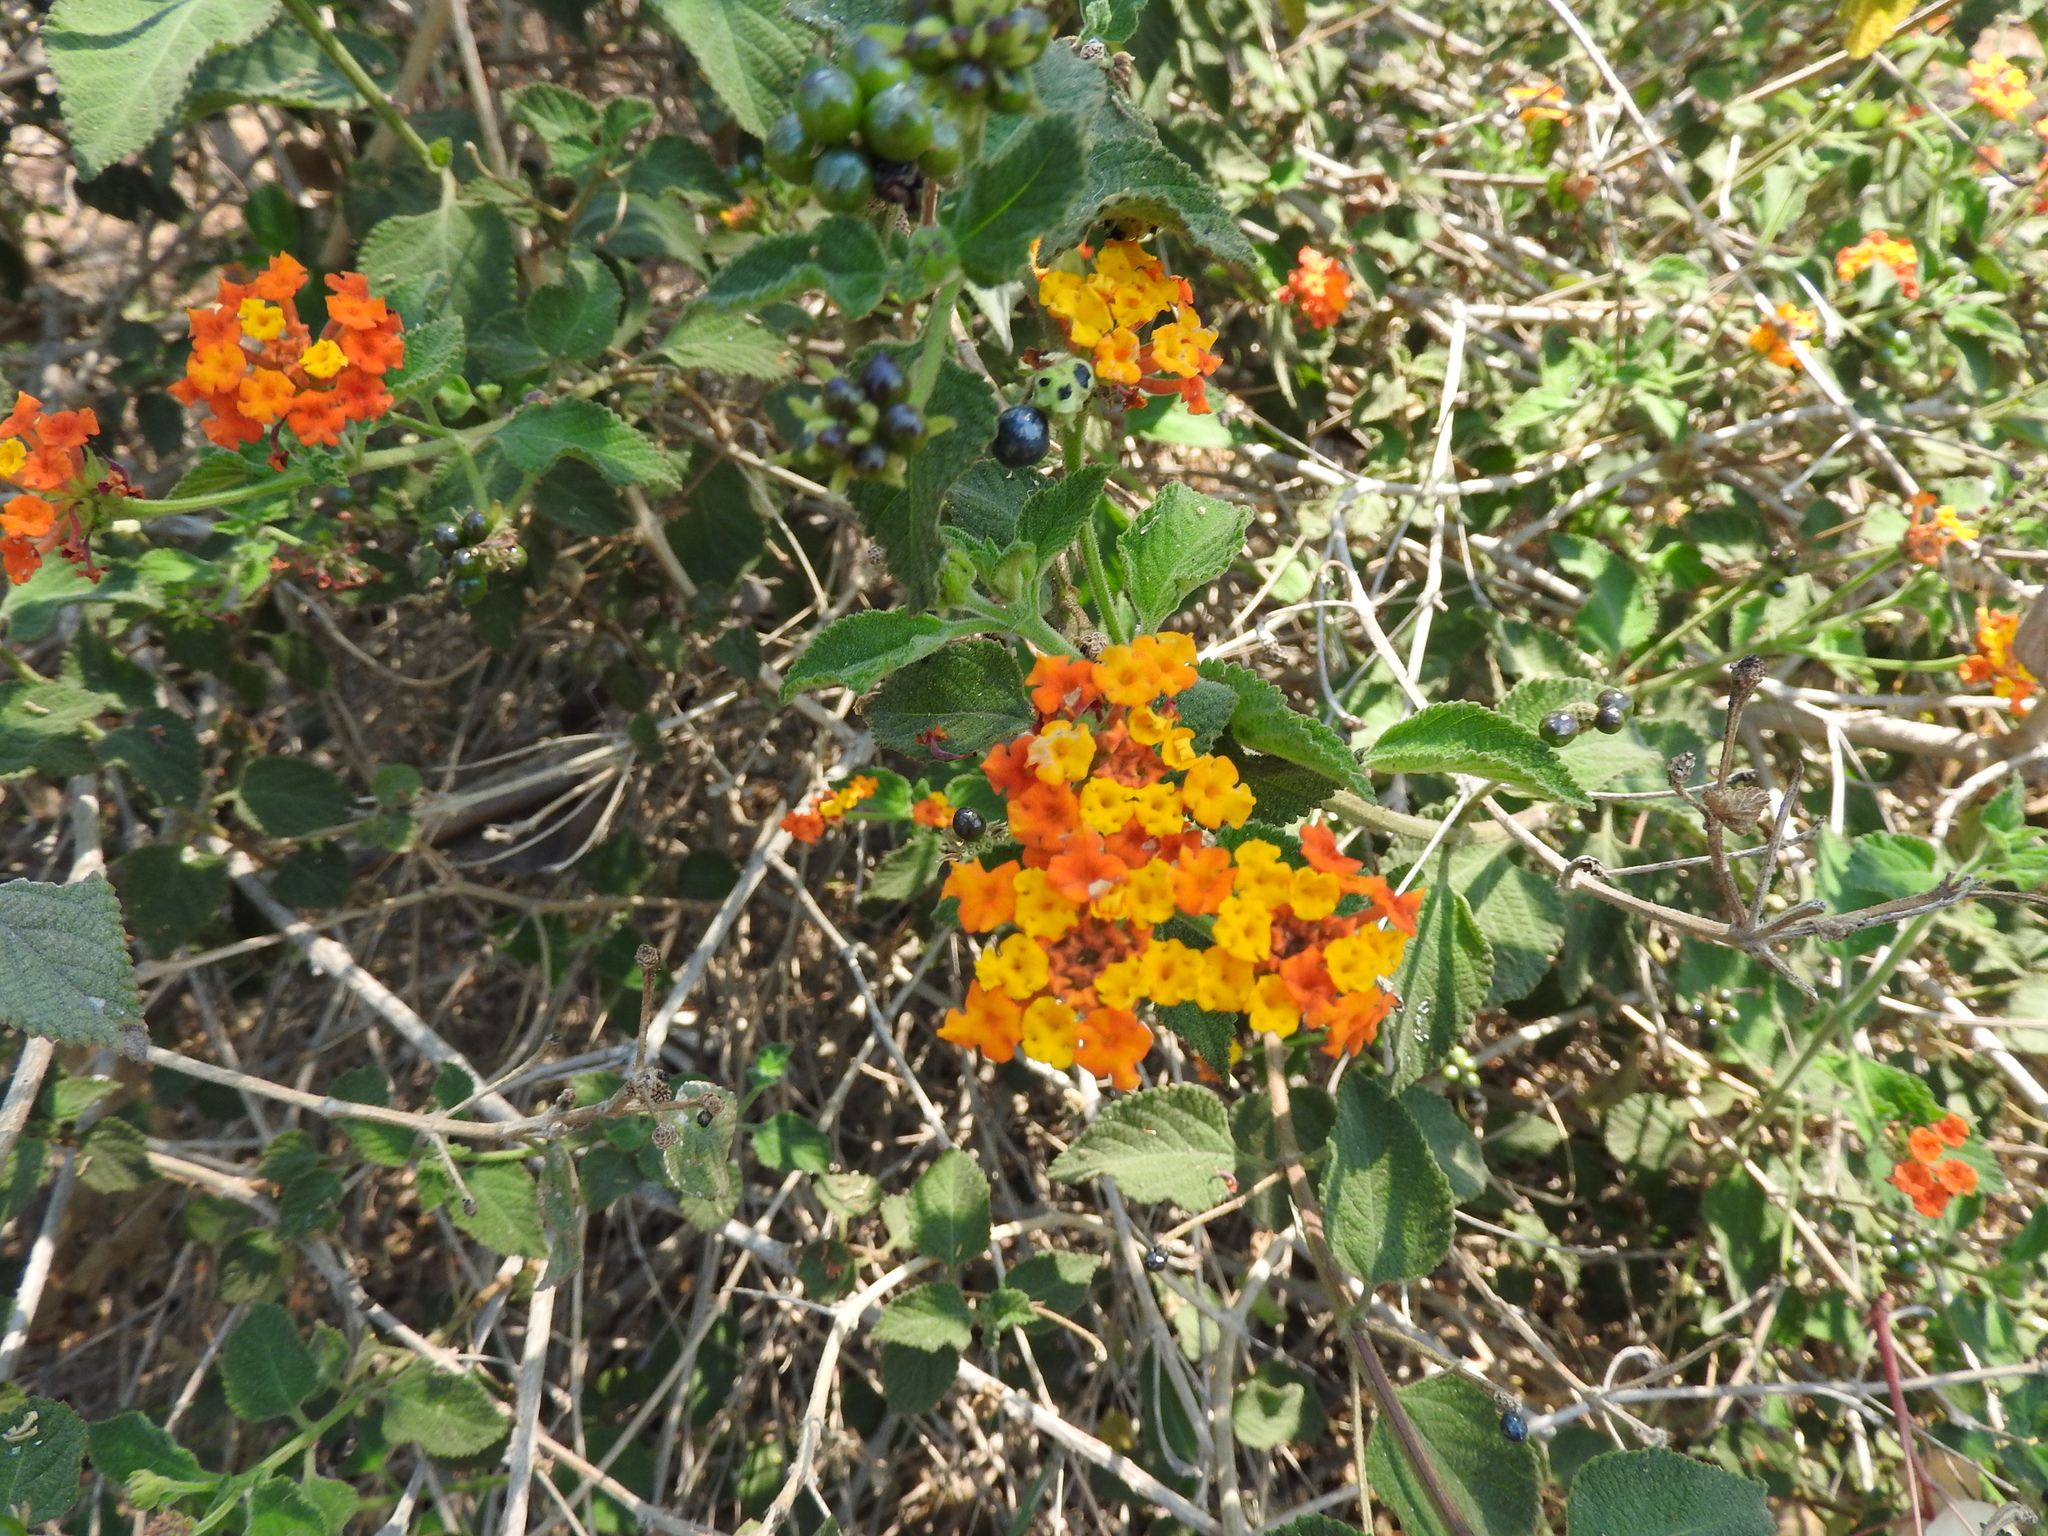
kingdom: Plantae
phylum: Tracheophyta
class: Magnoliopsida
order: Lamiales
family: Verbenaceae
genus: Lantana
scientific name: Lantana camara
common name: Lantana
